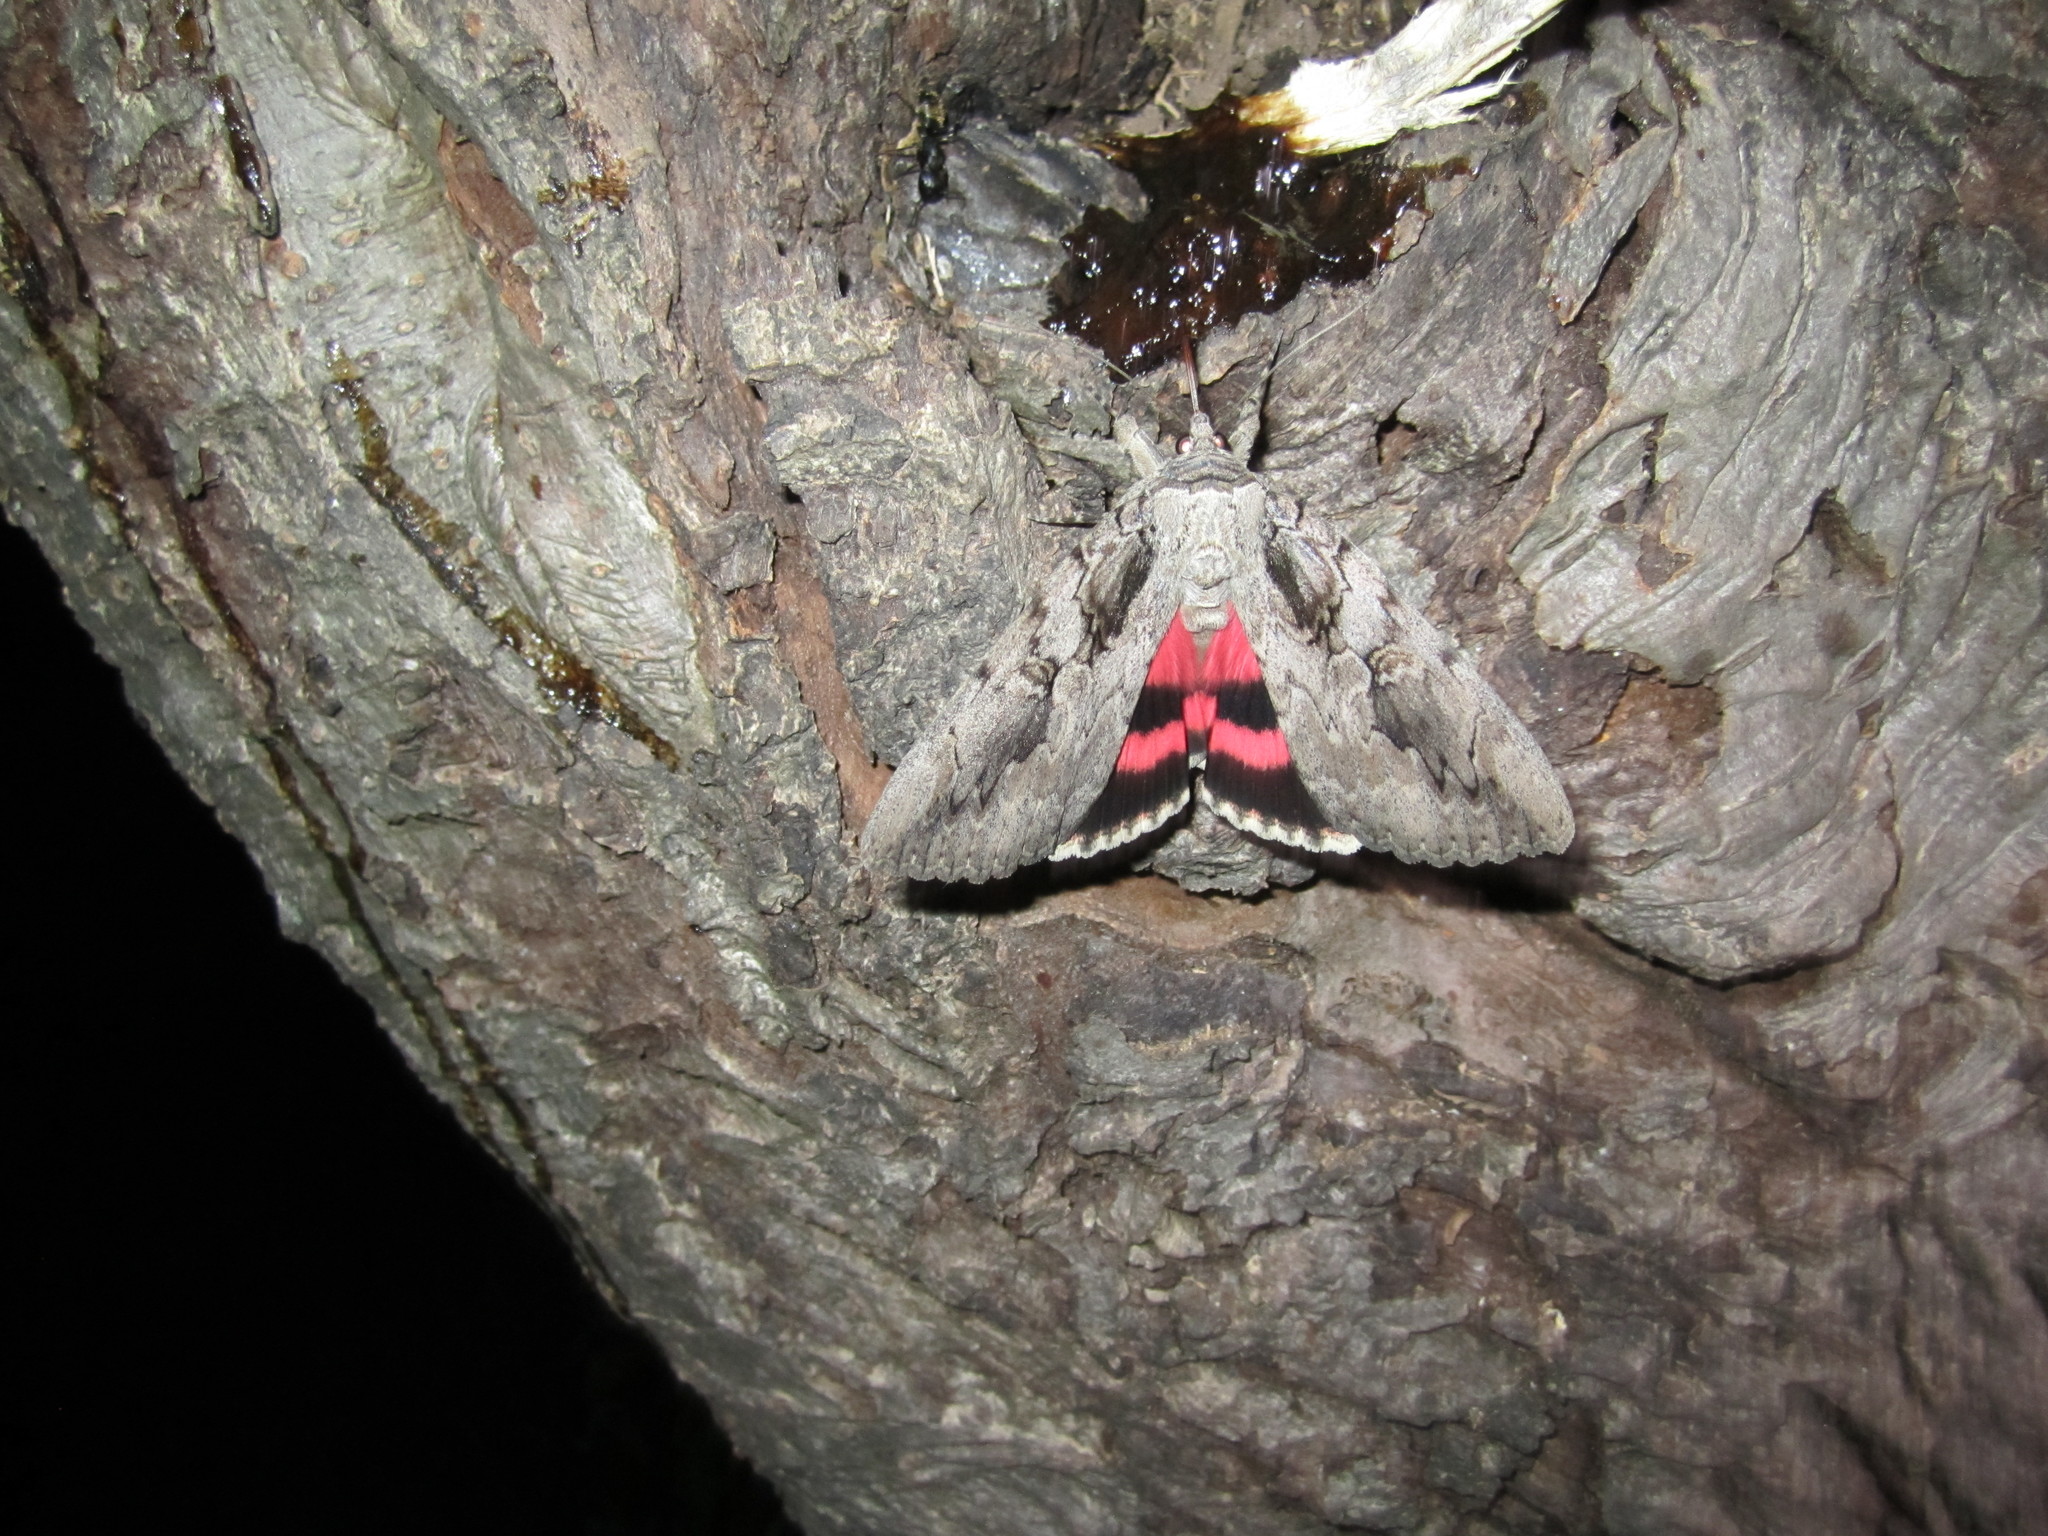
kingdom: Animalia
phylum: Arthropoda
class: Insecta
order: Lepidoptera
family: Erebidae
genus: Catocala
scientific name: Catocala amatrix
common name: Sweetheart underwing
